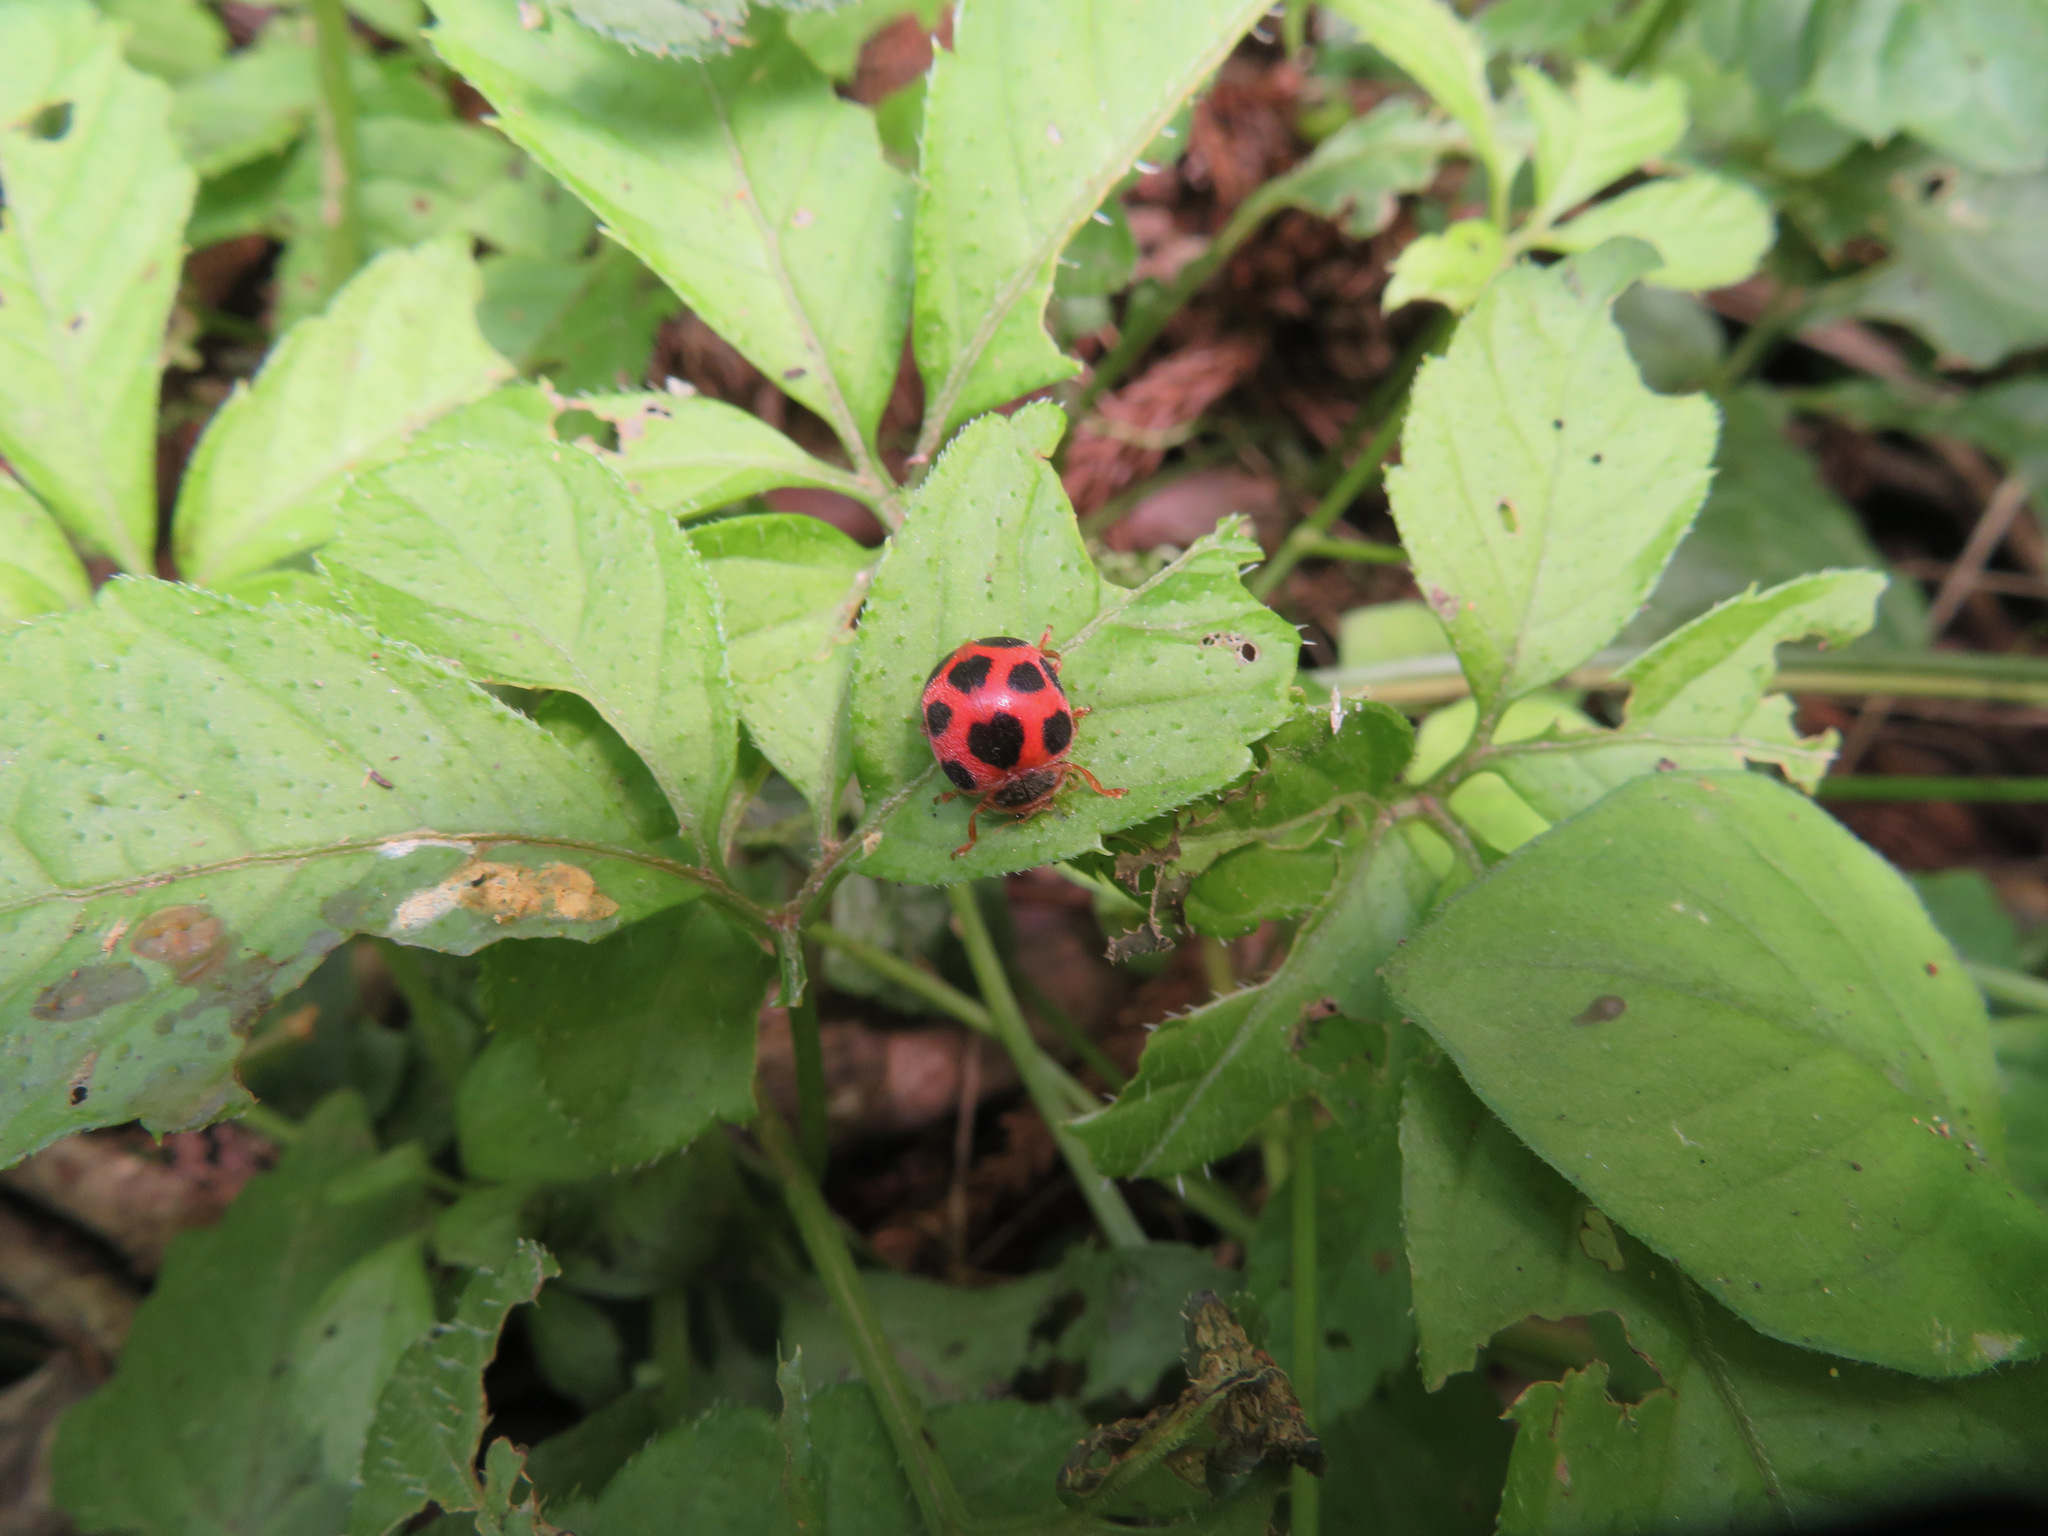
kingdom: Animalia
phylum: Arthropoda
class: Insecta
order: Coleoptera
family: Coccinellidae
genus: Diekeana
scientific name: Diekeana
